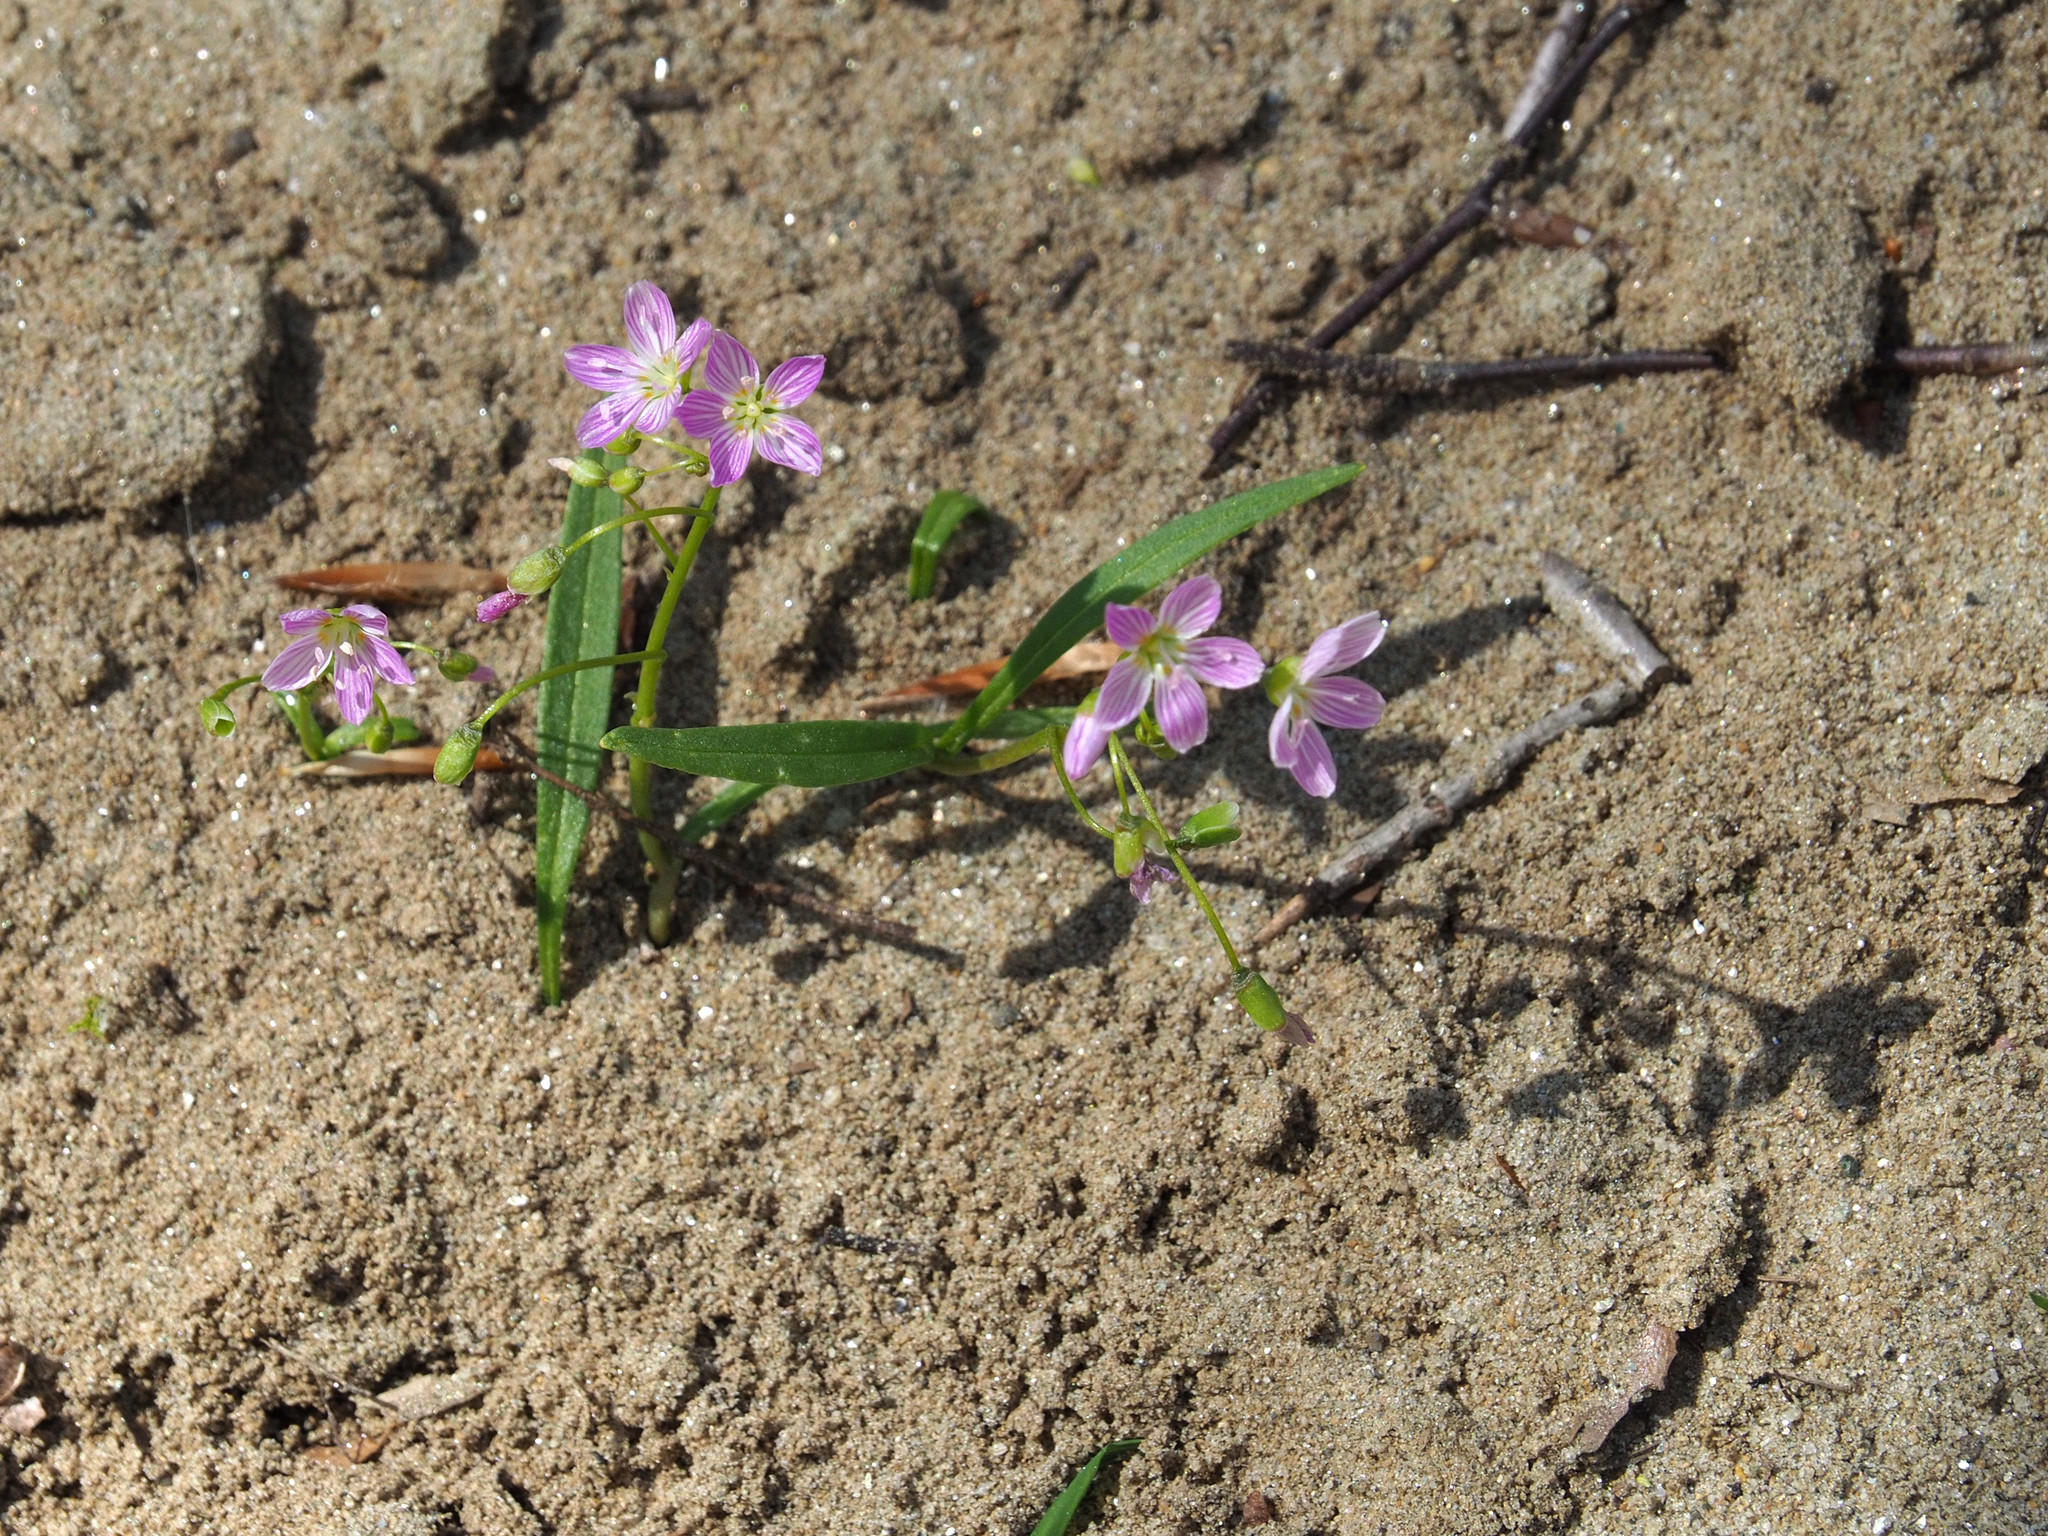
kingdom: Plantae
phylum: Tracheophyta
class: Magnoliopsida
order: Caryophyllales
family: Montiaceae
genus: Claytonia
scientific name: Claytonia virginica
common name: Virginia springbeauty
